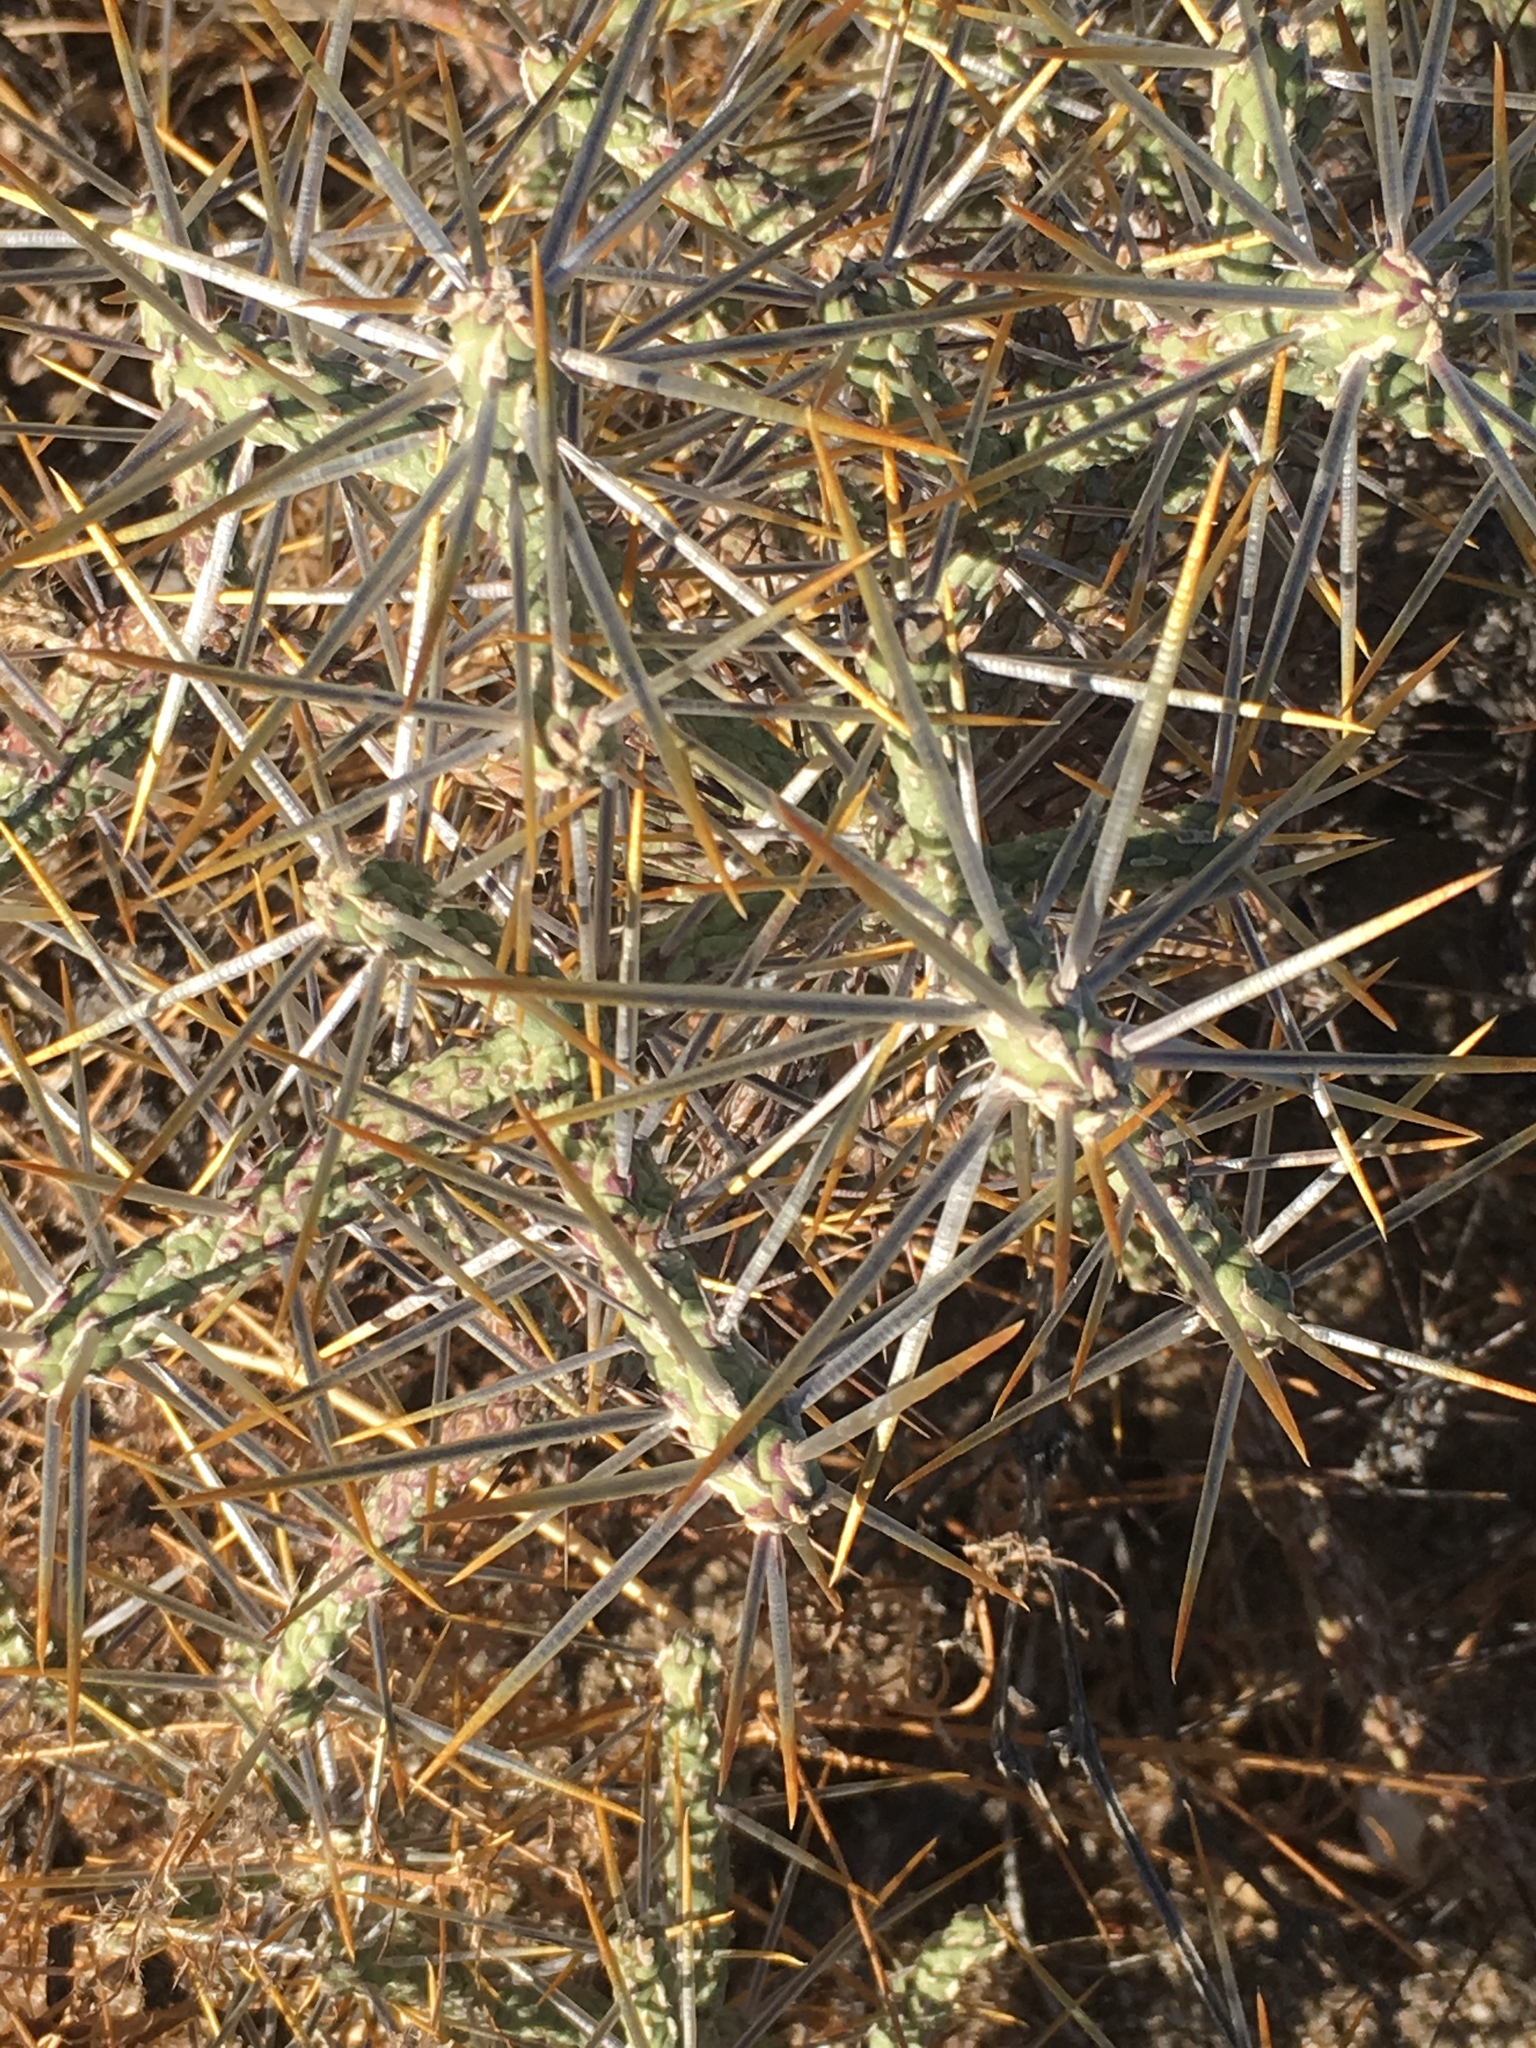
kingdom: Plantae
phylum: Tracheophyta
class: Magnoliopsida
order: Caryophyllales
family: Cactaceae
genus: Cylindropuntia
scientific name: Cylindropuntia ramosissima
